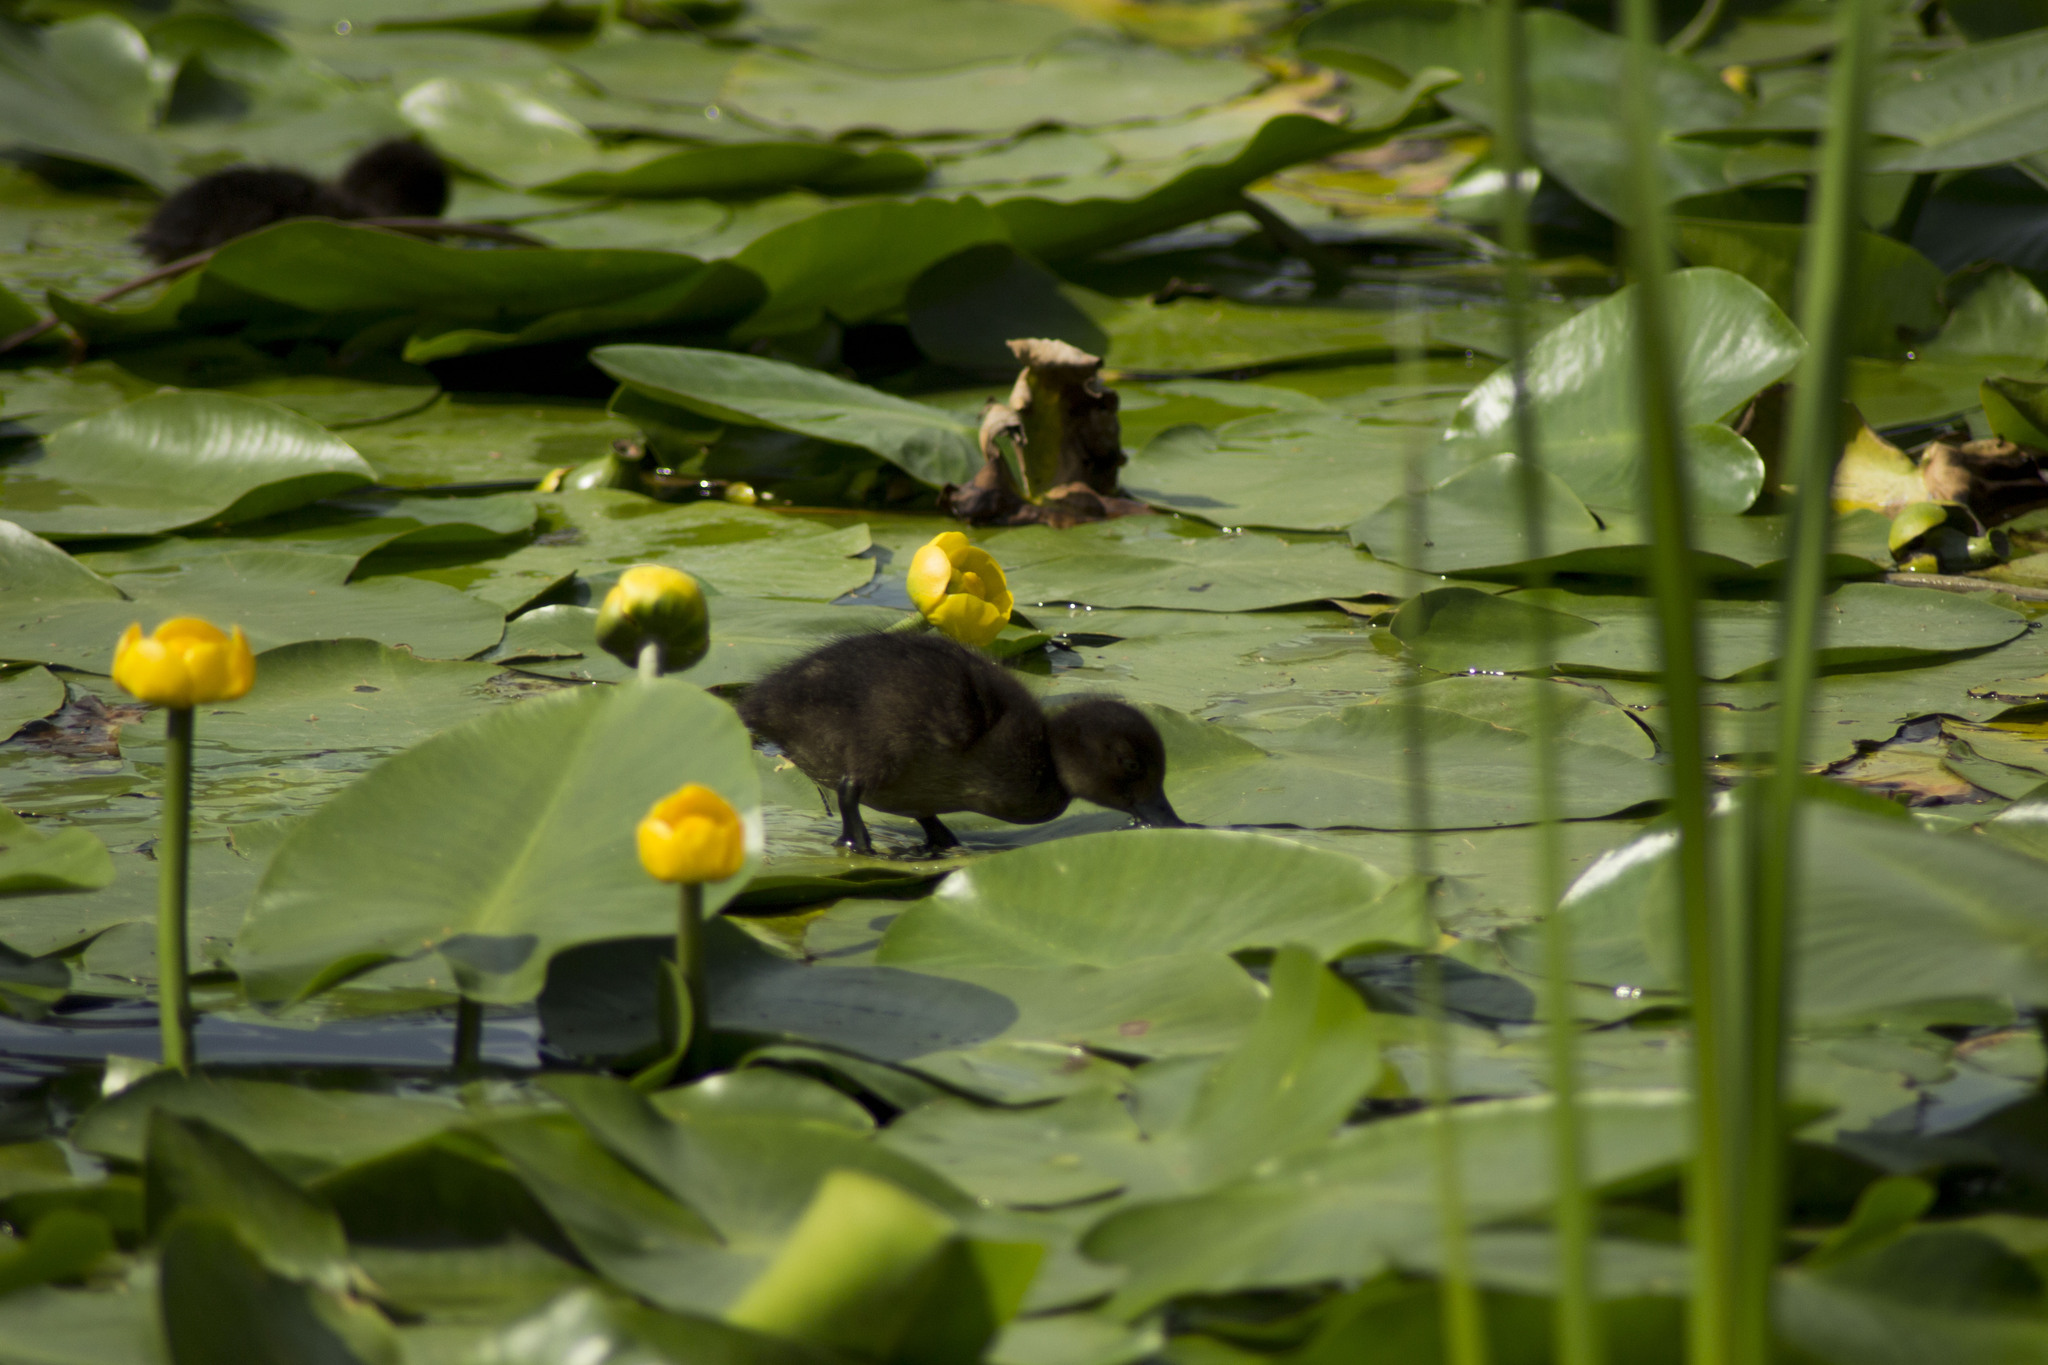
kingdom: Animalia
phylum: Chordata
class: Aves
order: Anseriformes
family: Anatidae
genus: Aythya
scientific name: Aythya fuligula
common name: Tufted duck
